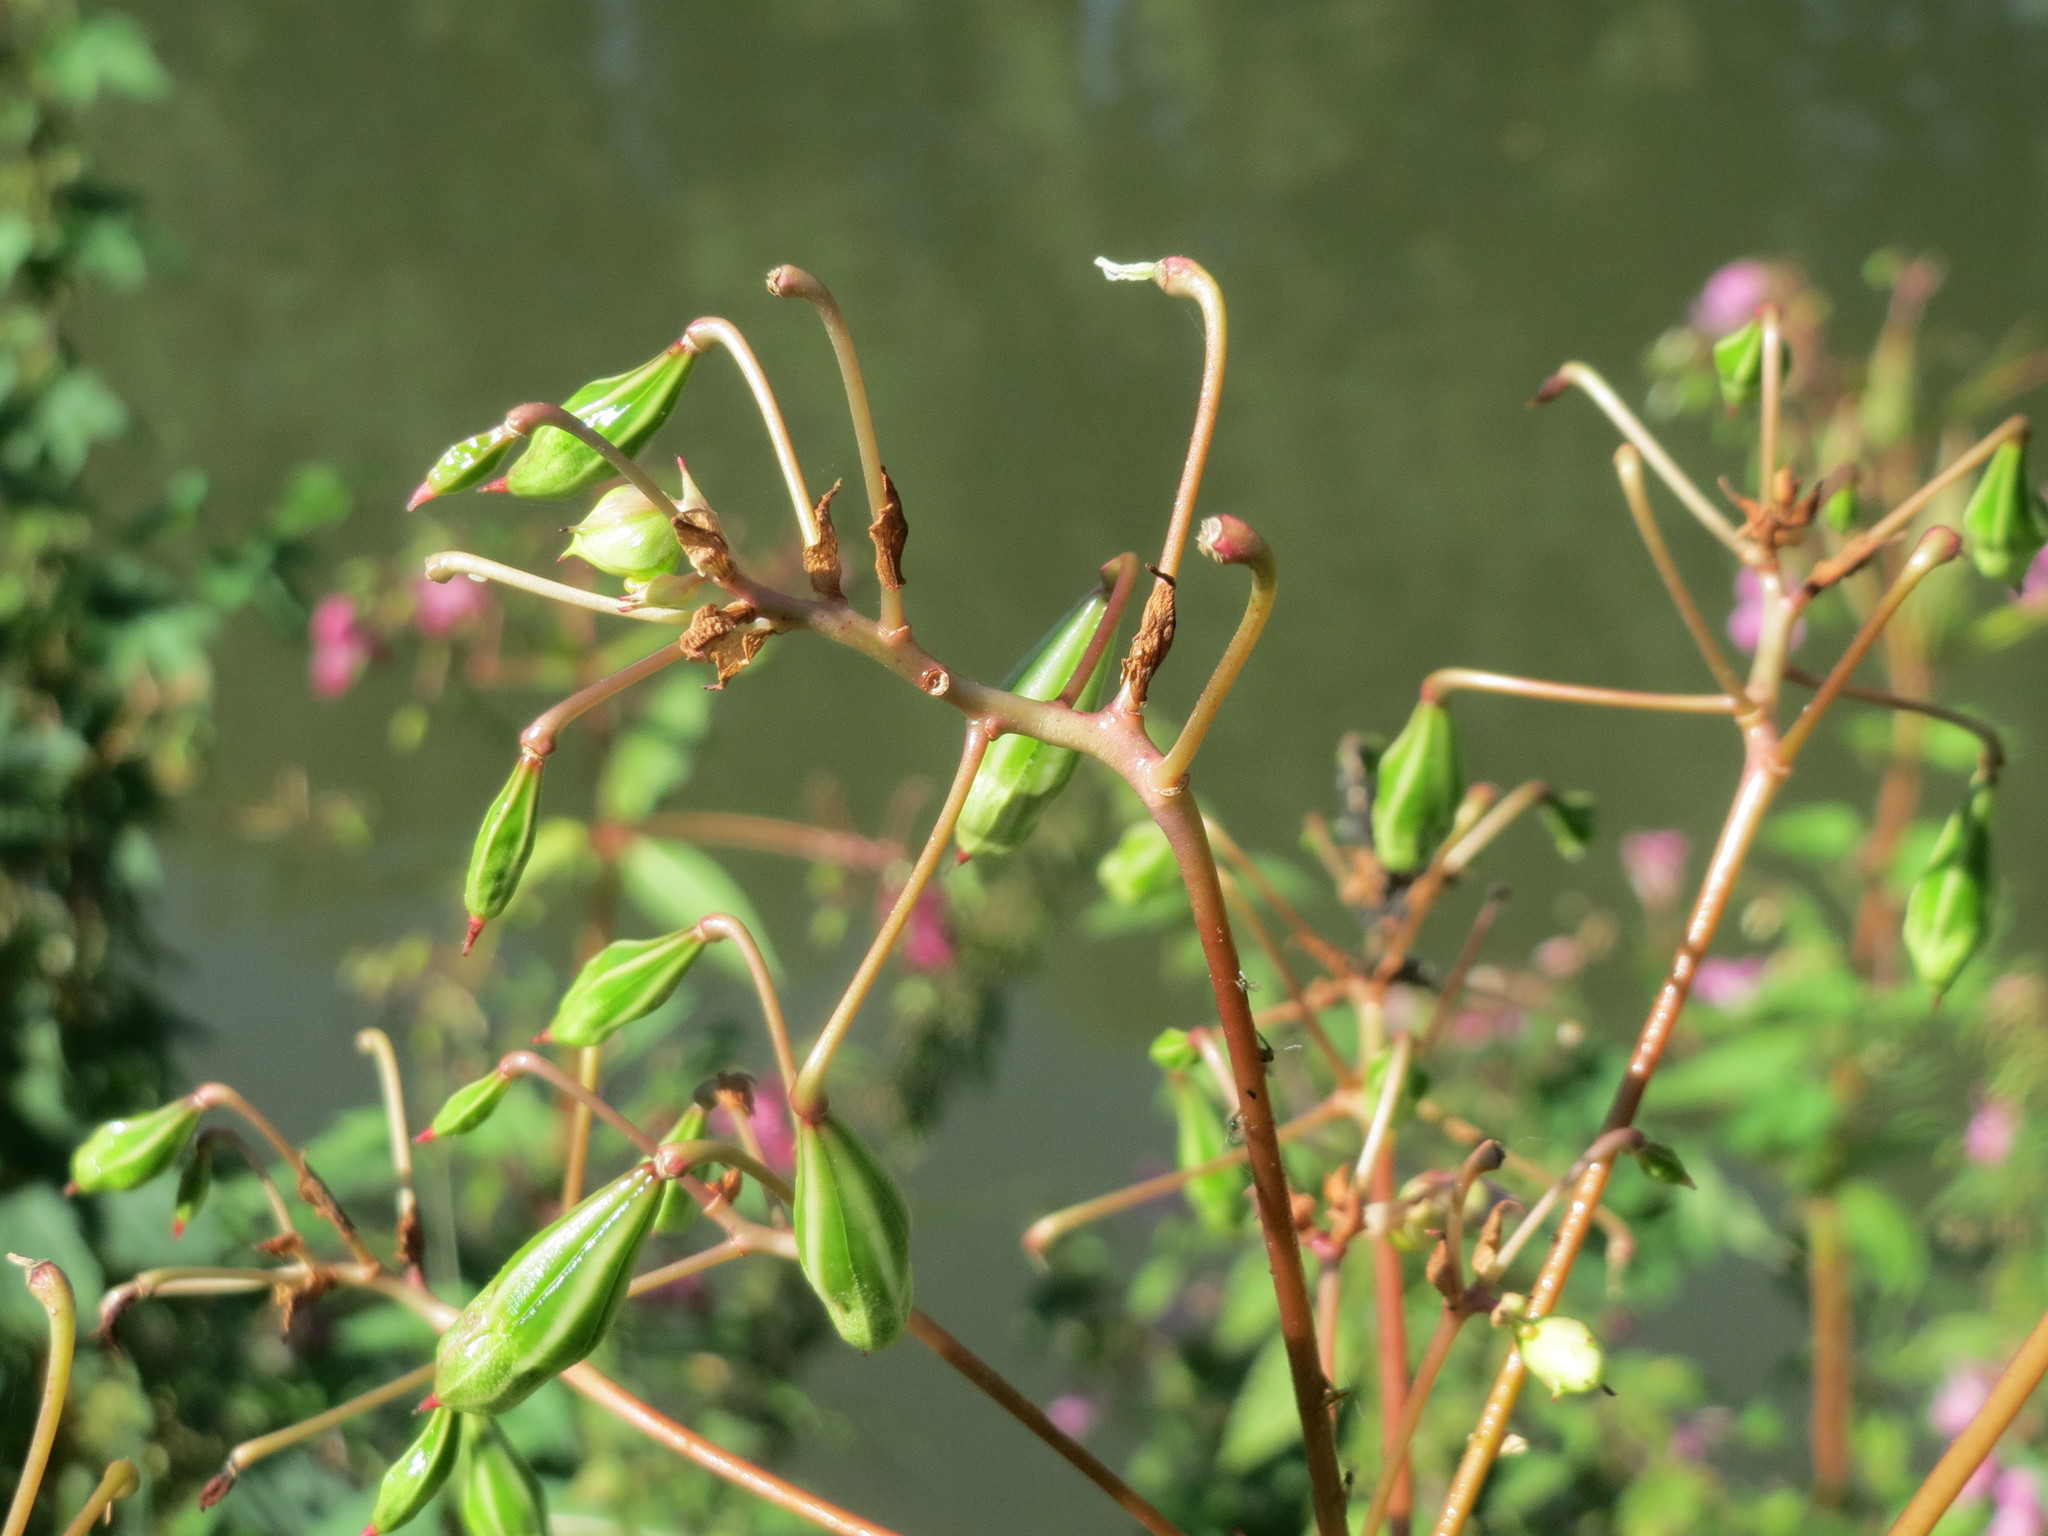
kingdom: Plantae
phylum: Tracheophyta
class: Magnoliopsida
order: Ericales
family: Balsaminaceae
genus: Impatiens
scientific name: Impatiens glandulifera
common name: Himalayan balsam
